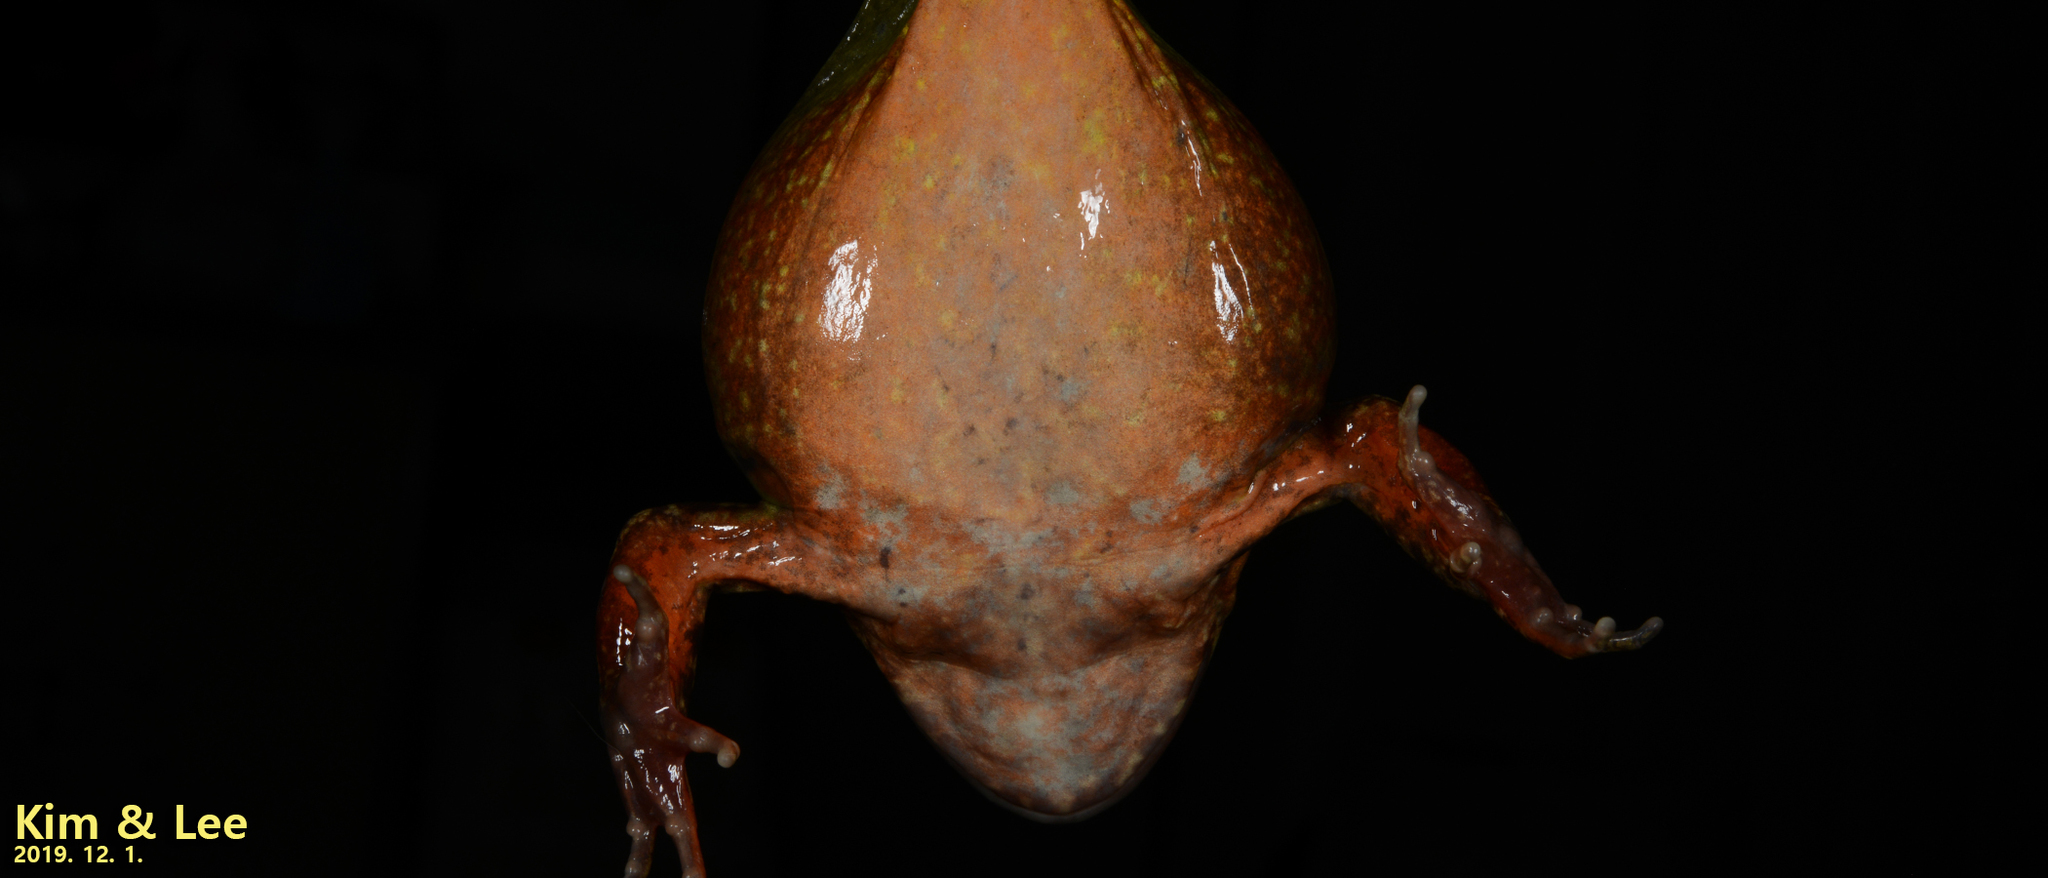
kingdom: Animalia
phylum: Chordata
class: Amphibia
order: Anura
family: Ranidae
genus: Rana
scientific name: Rana dybowskii
